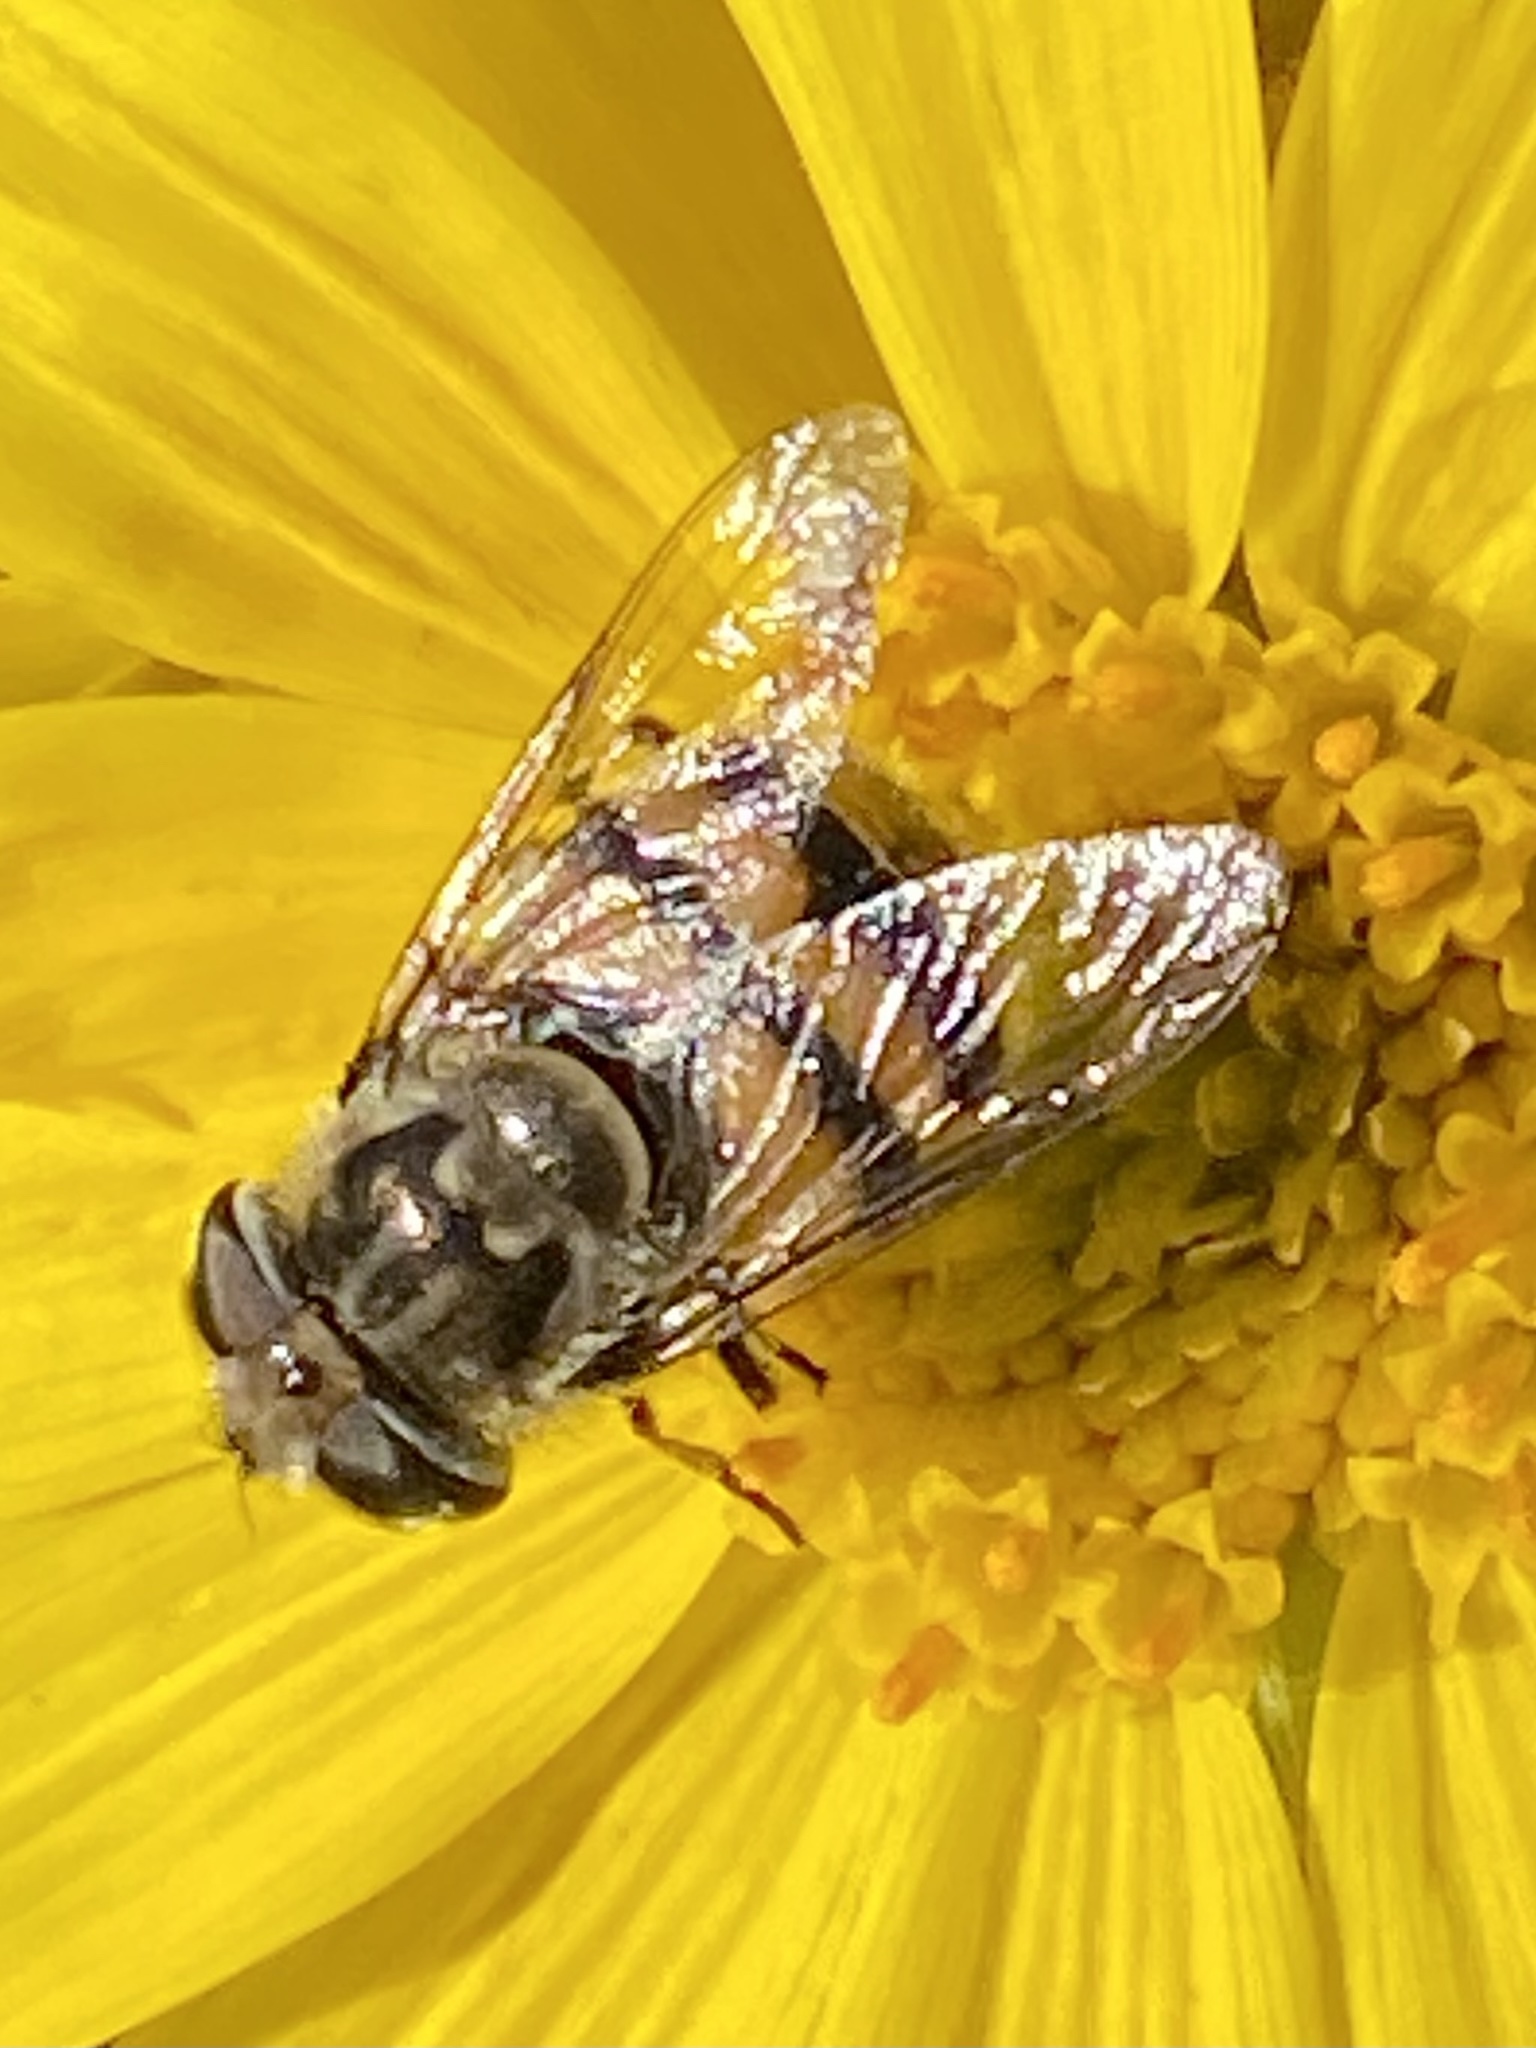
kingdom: Animalia
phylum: Arthropoda
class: Insecta
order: Diptera
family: Syrphidae
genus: Copestylum
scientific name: Copestylum avidum
